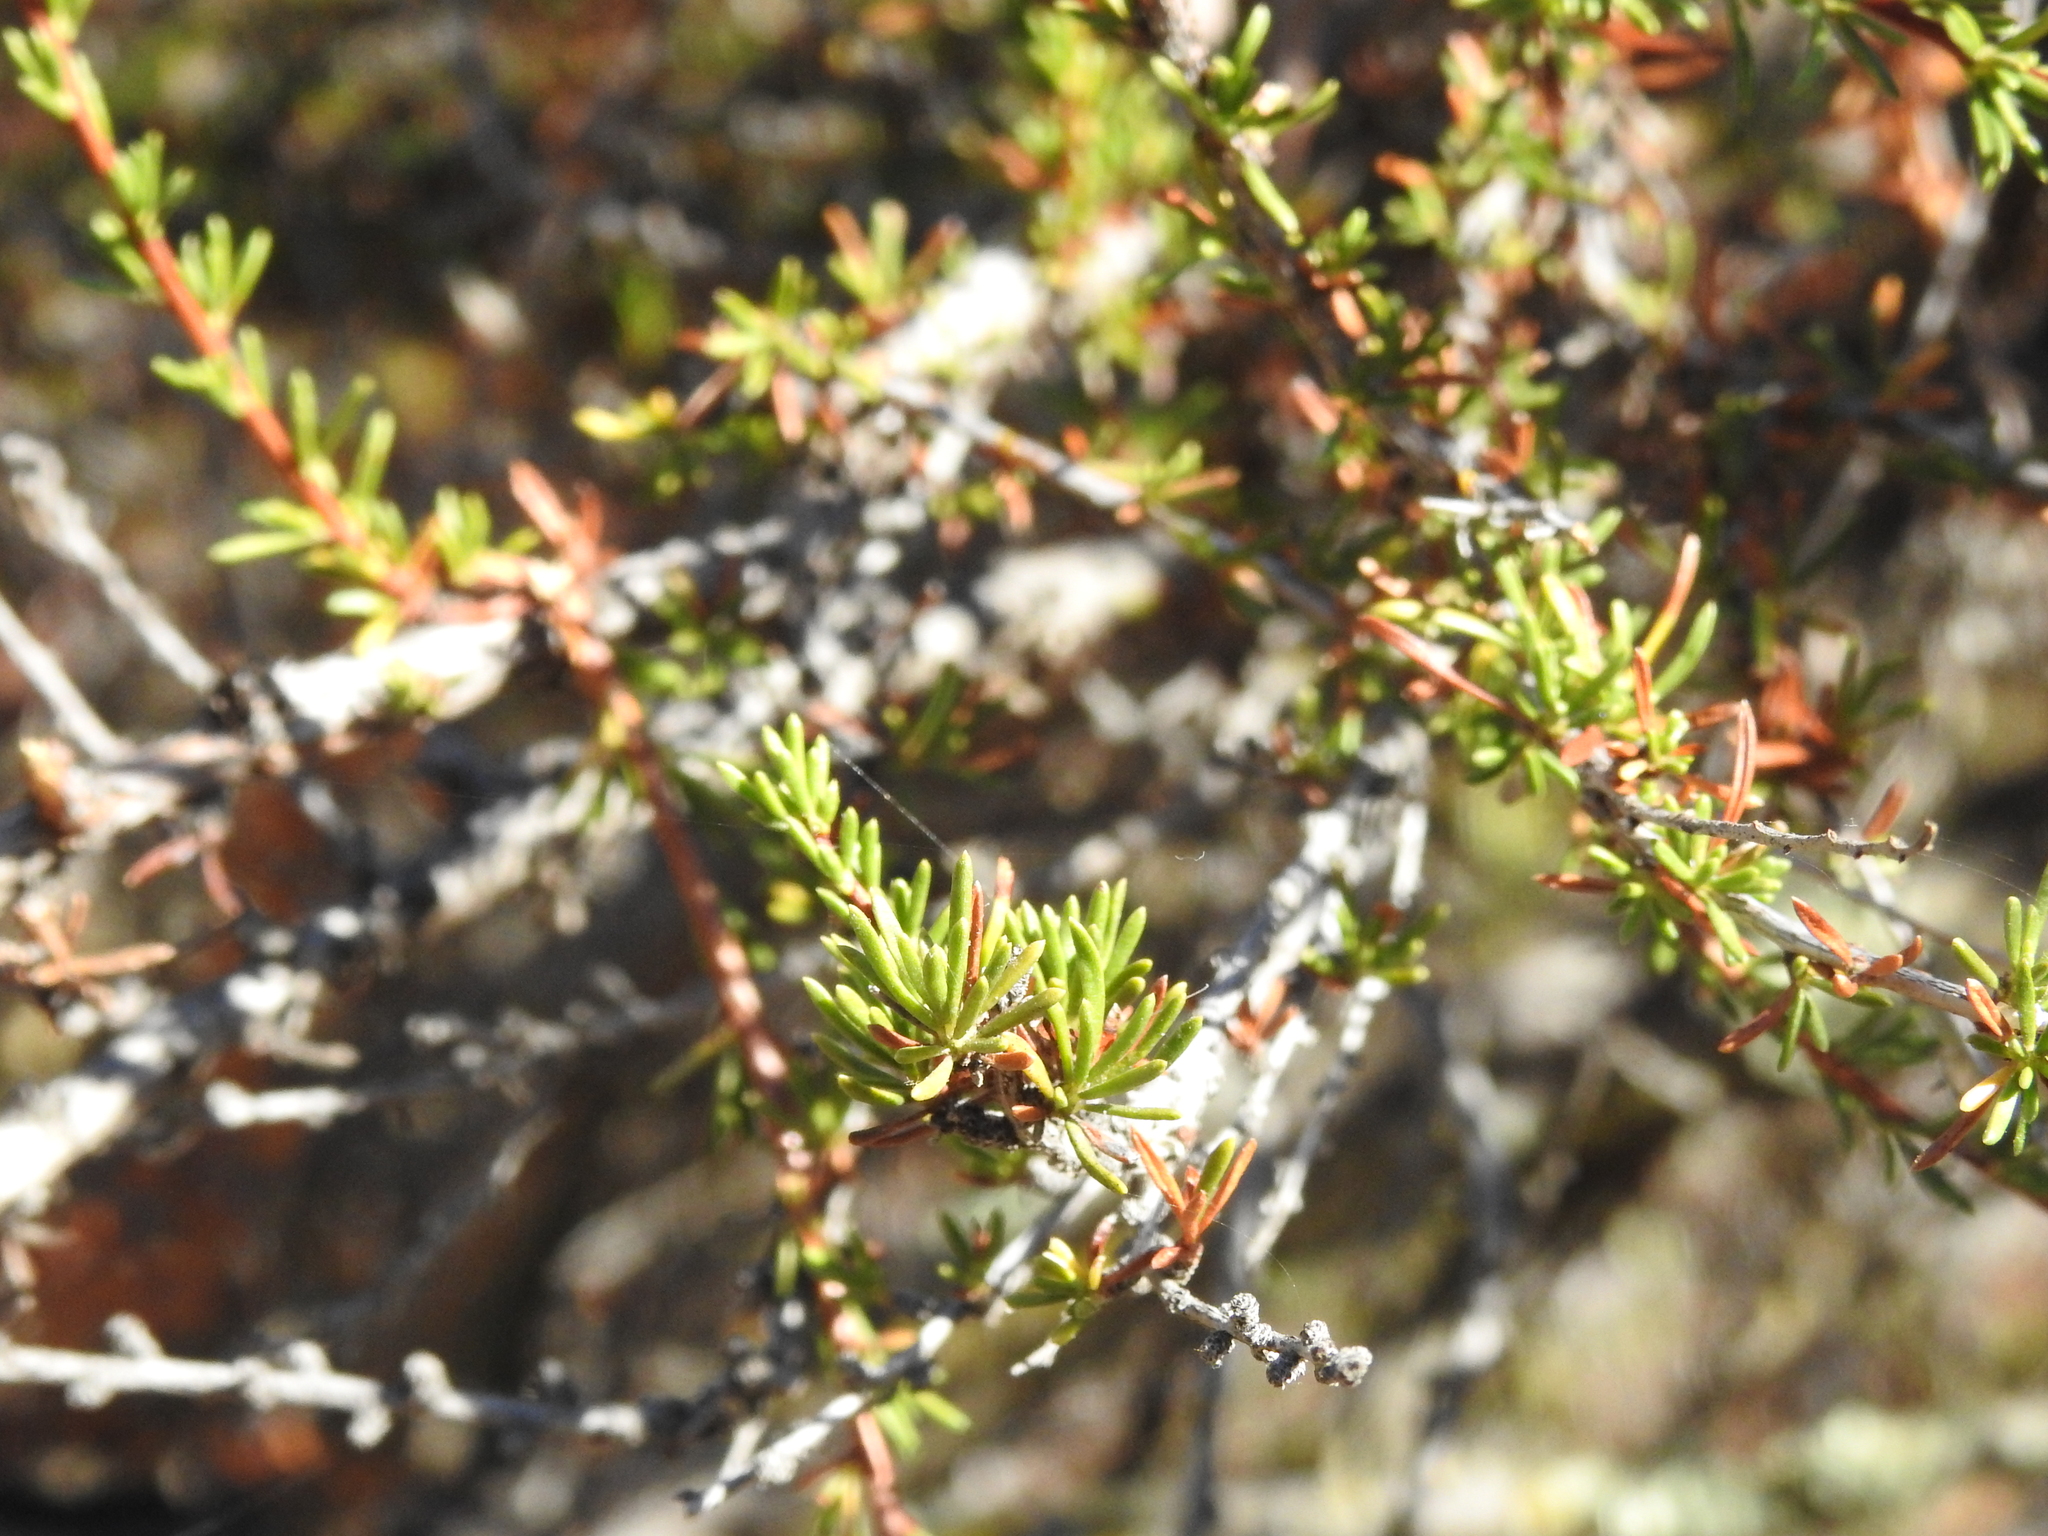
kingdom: Plantae
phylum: Tracheophyta
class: Magnoliopsida
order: Rosales
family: Rosaceae
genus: Adenostoma
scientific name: Adenostoma fasciculatum
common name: Chamise
